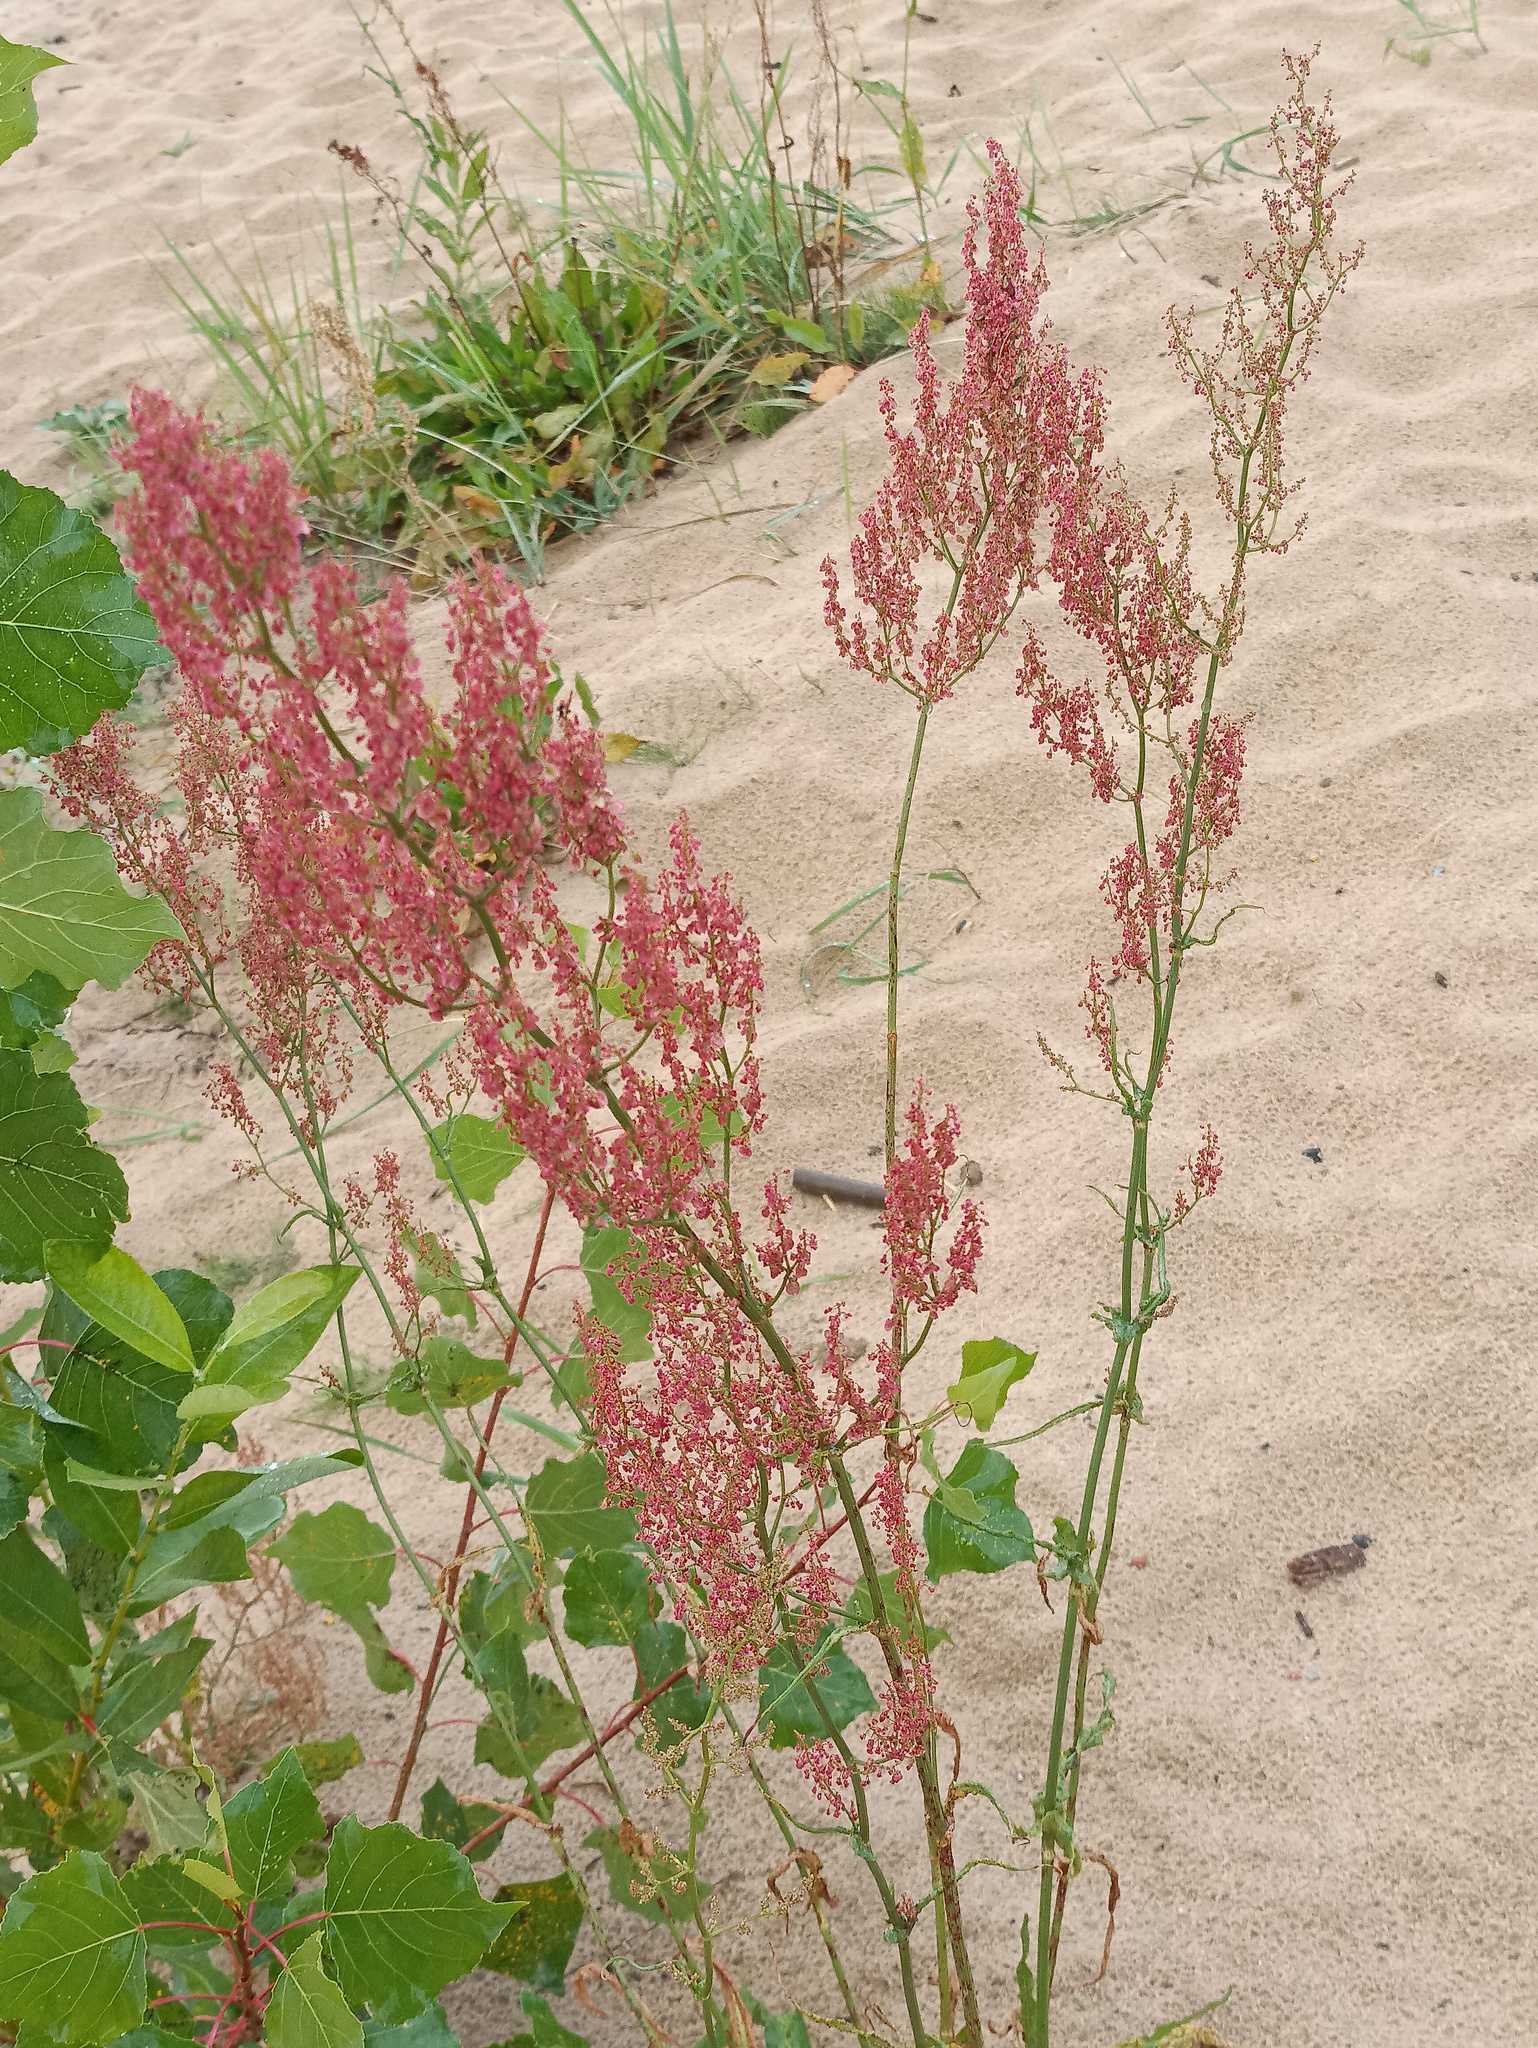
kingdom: Plantae
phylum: Tracheophyta
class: Magnoliopsida
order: Caryophyllales
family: Polygonaceae
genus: Rumex
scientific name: Rumex thyrsiflorus
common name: Garden sorrel
